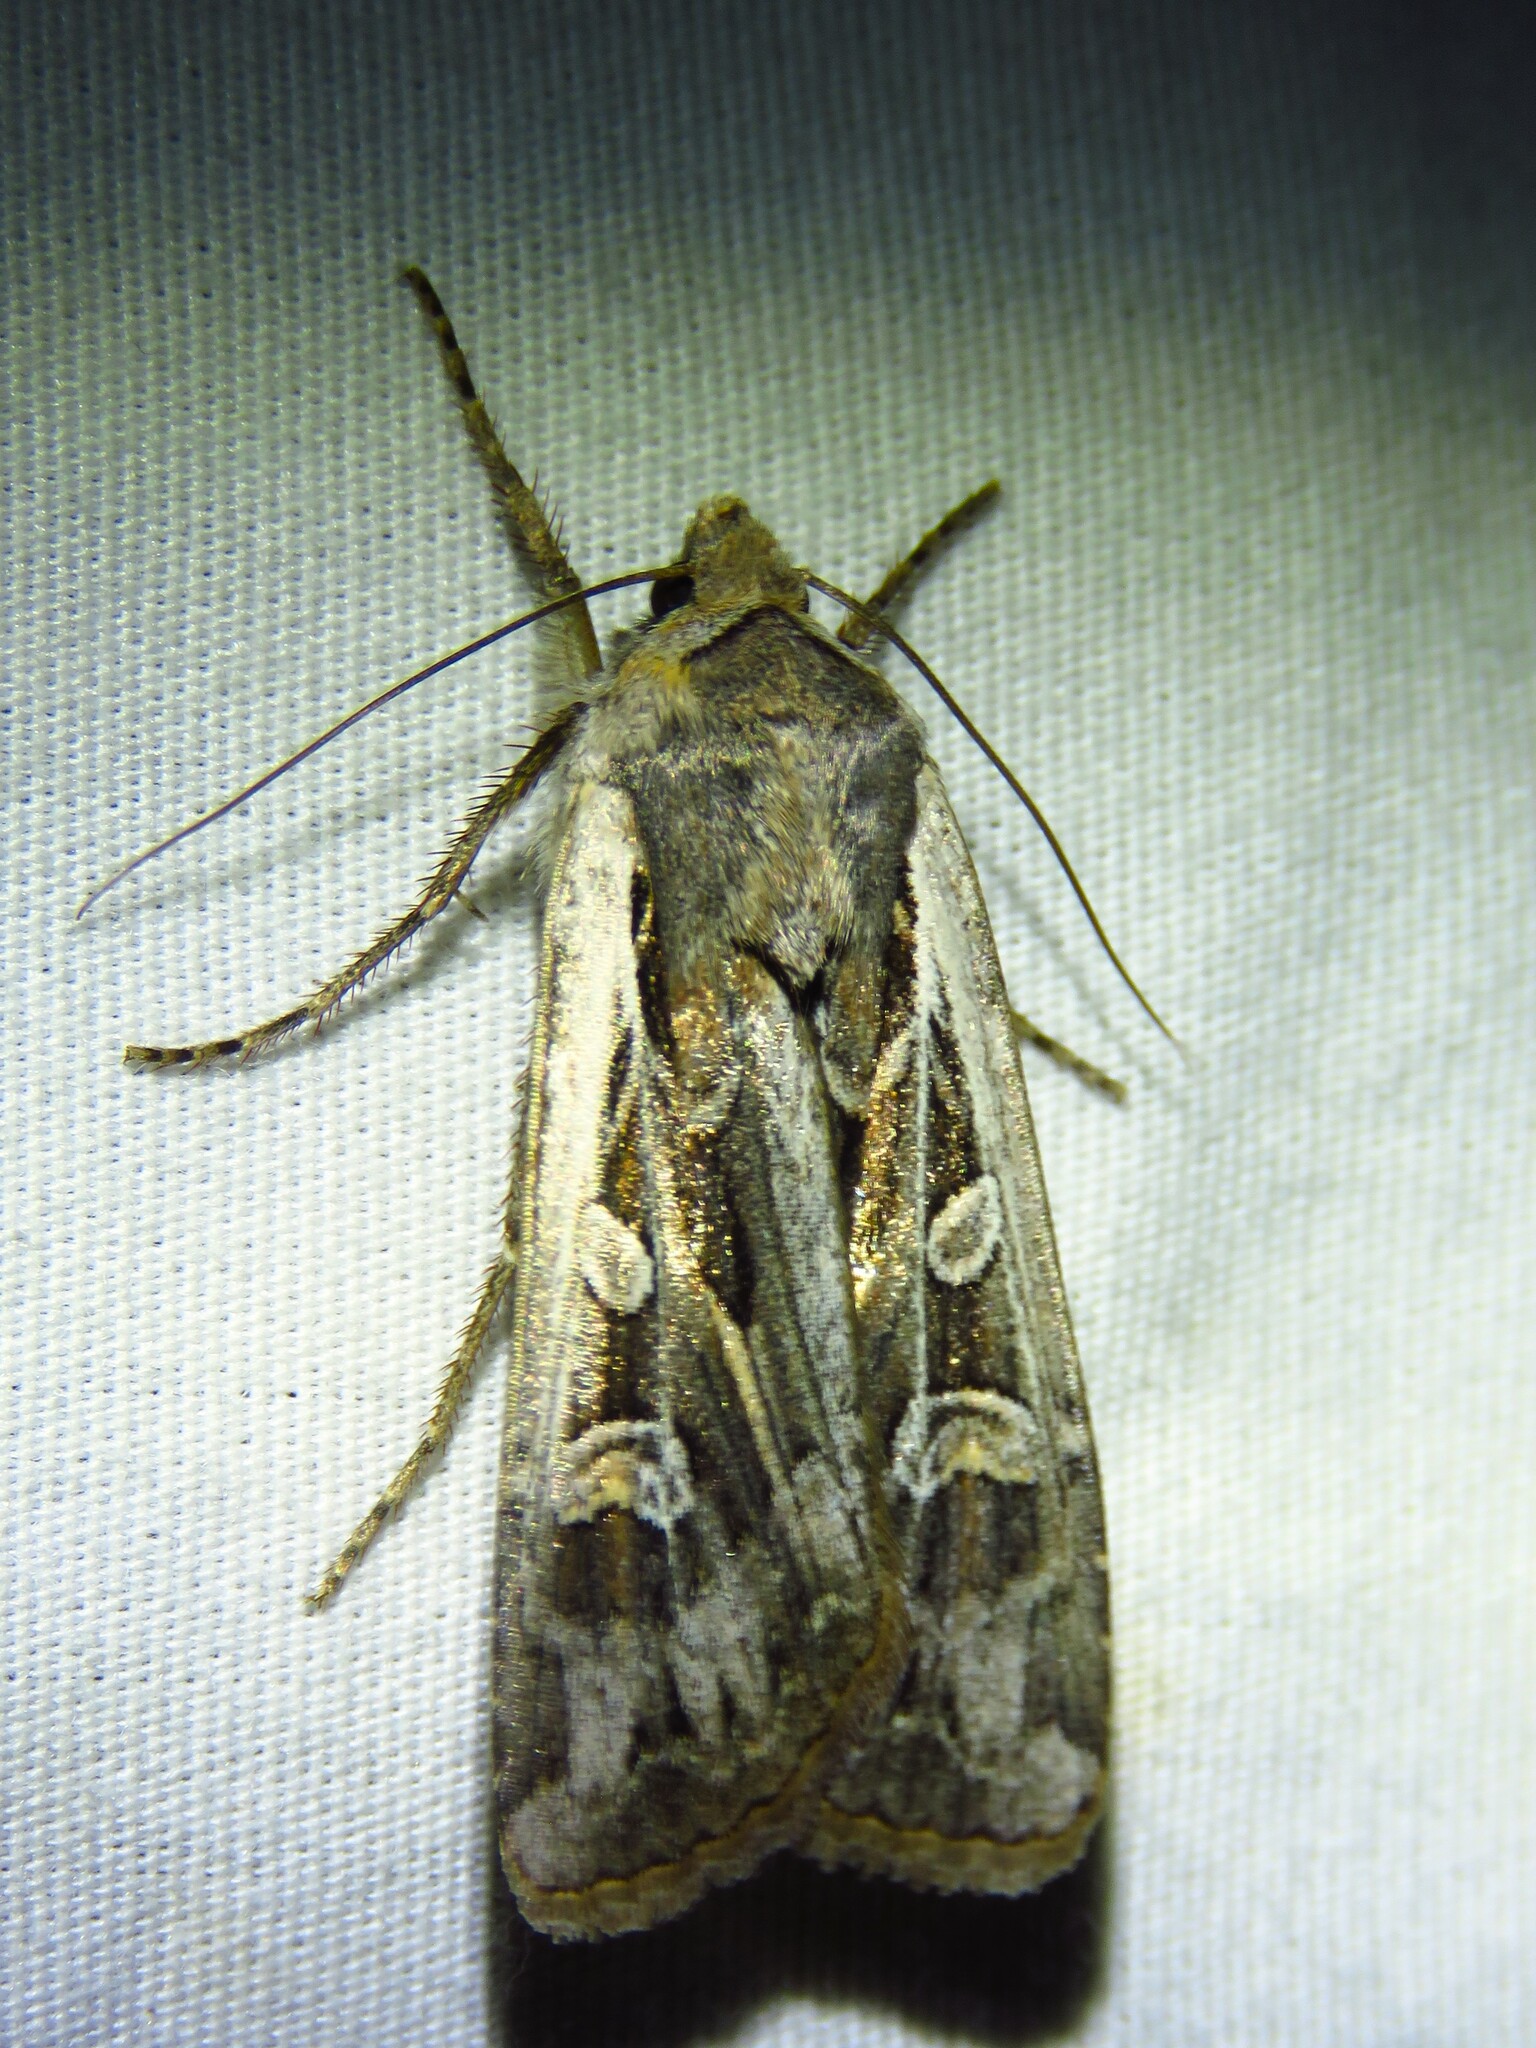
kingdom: Animalia
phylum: Arthropoda
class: Insecta
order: Lepidoptera
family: Noctuidae
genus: Euxoa
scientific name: Euxoa auxiliaris
